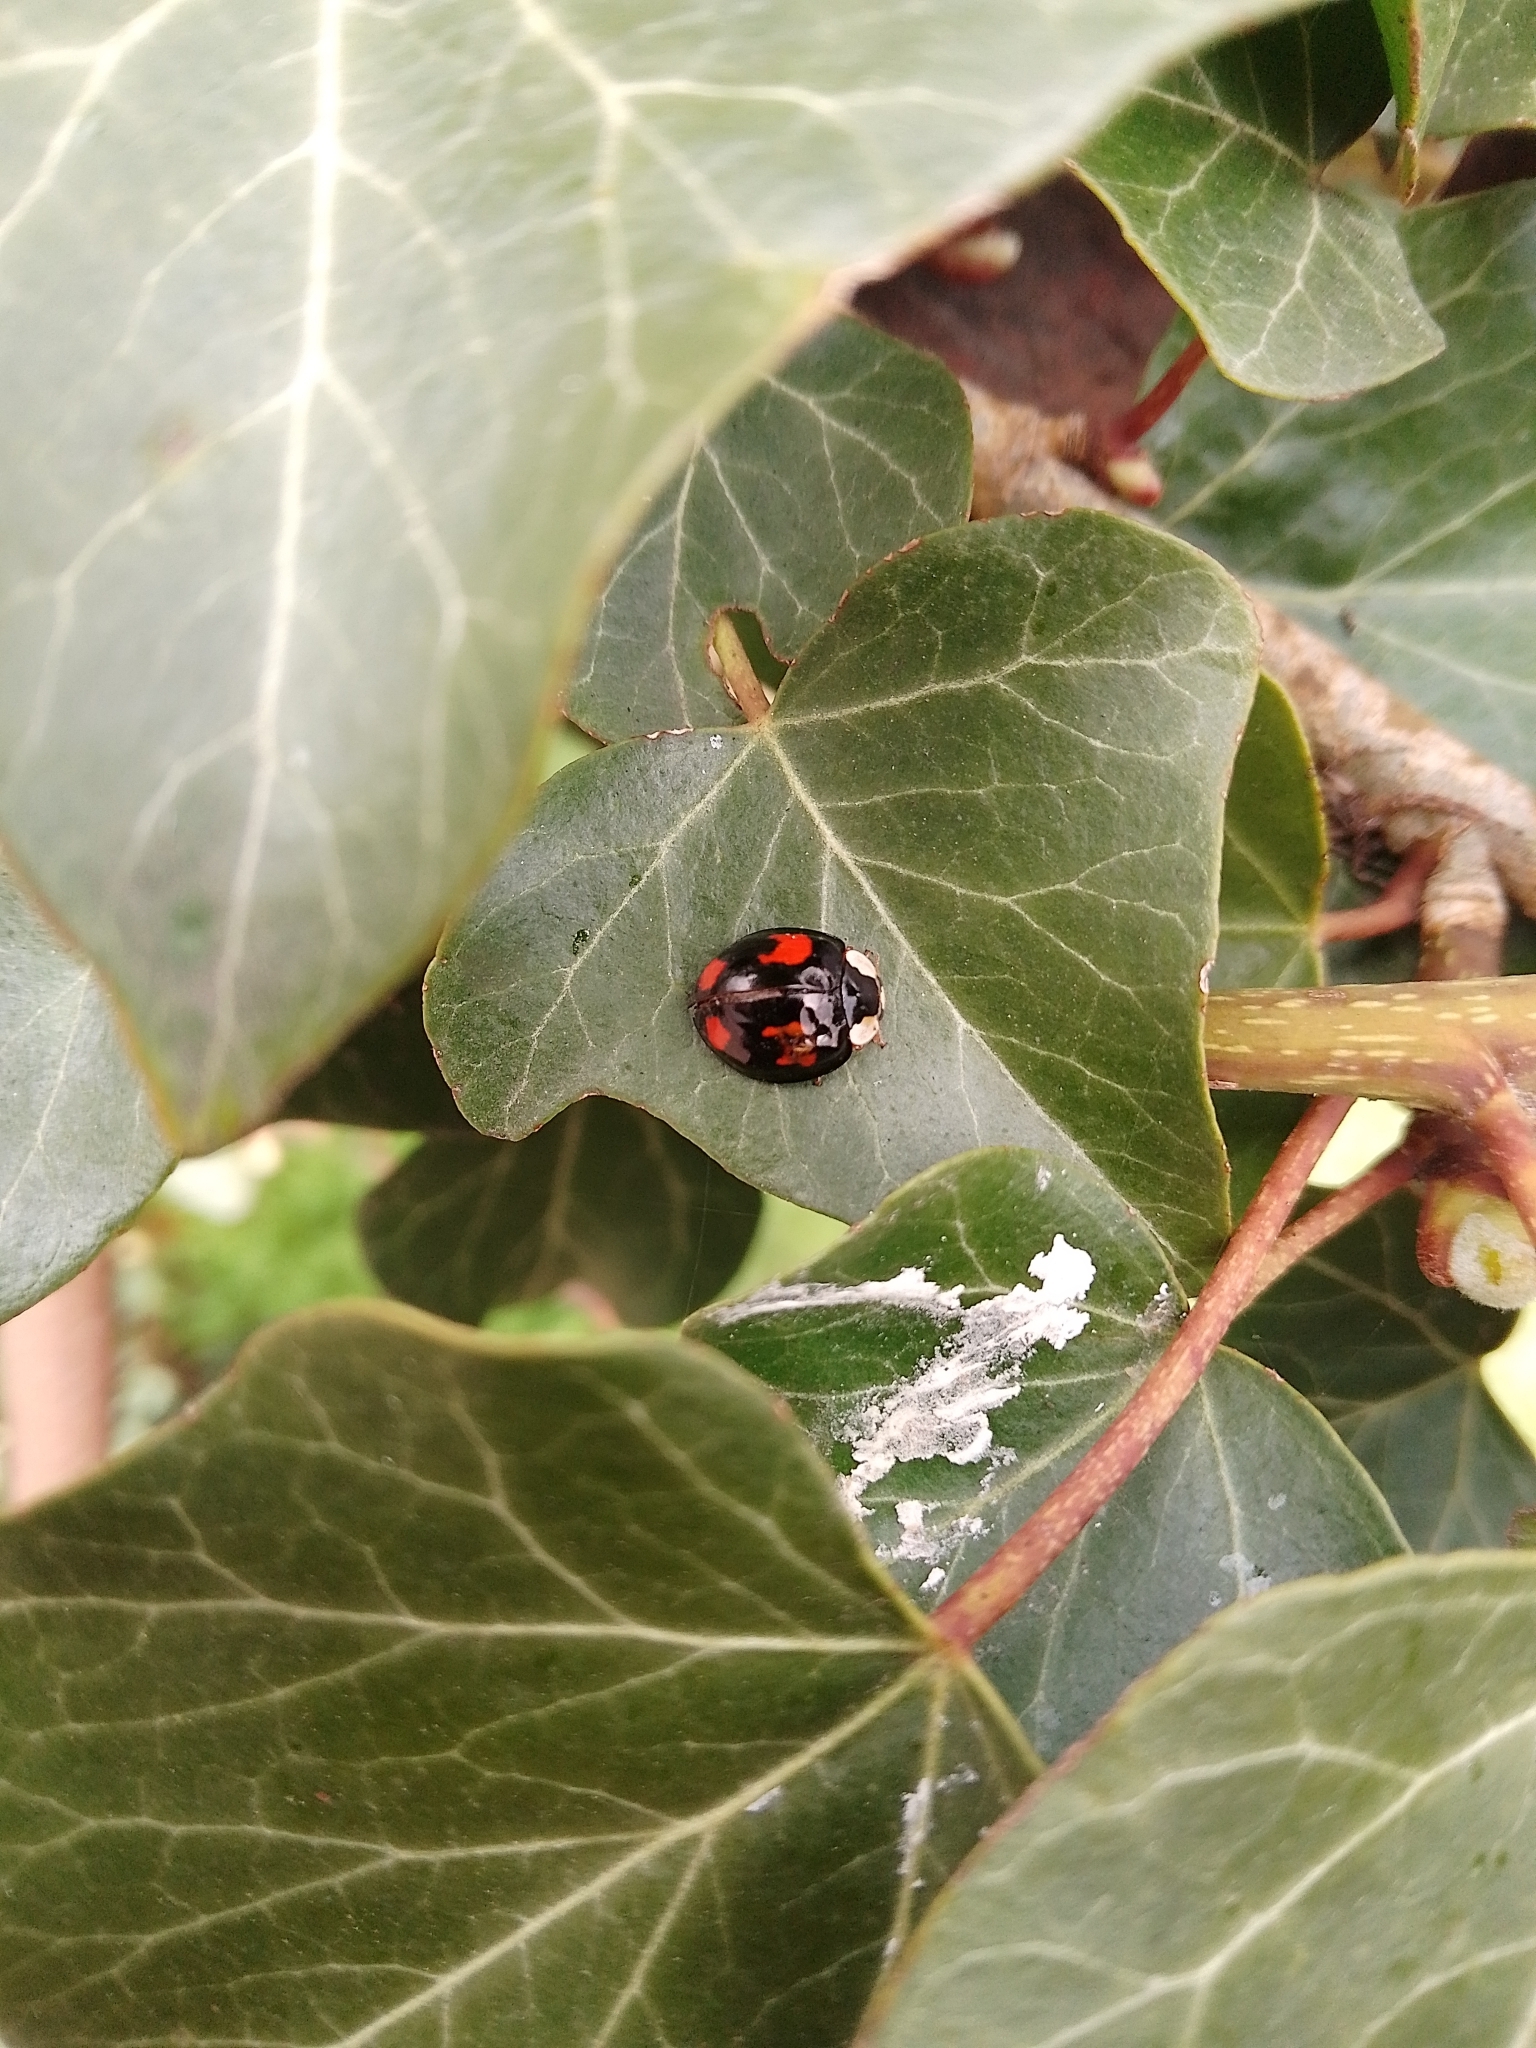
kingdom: Animalia
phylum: Arthropoda
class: Insecta
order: Coleoptera
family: Coccinellidae
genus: Harmonia
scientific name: Harmonia axyridis
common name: Harlequin ladybird
